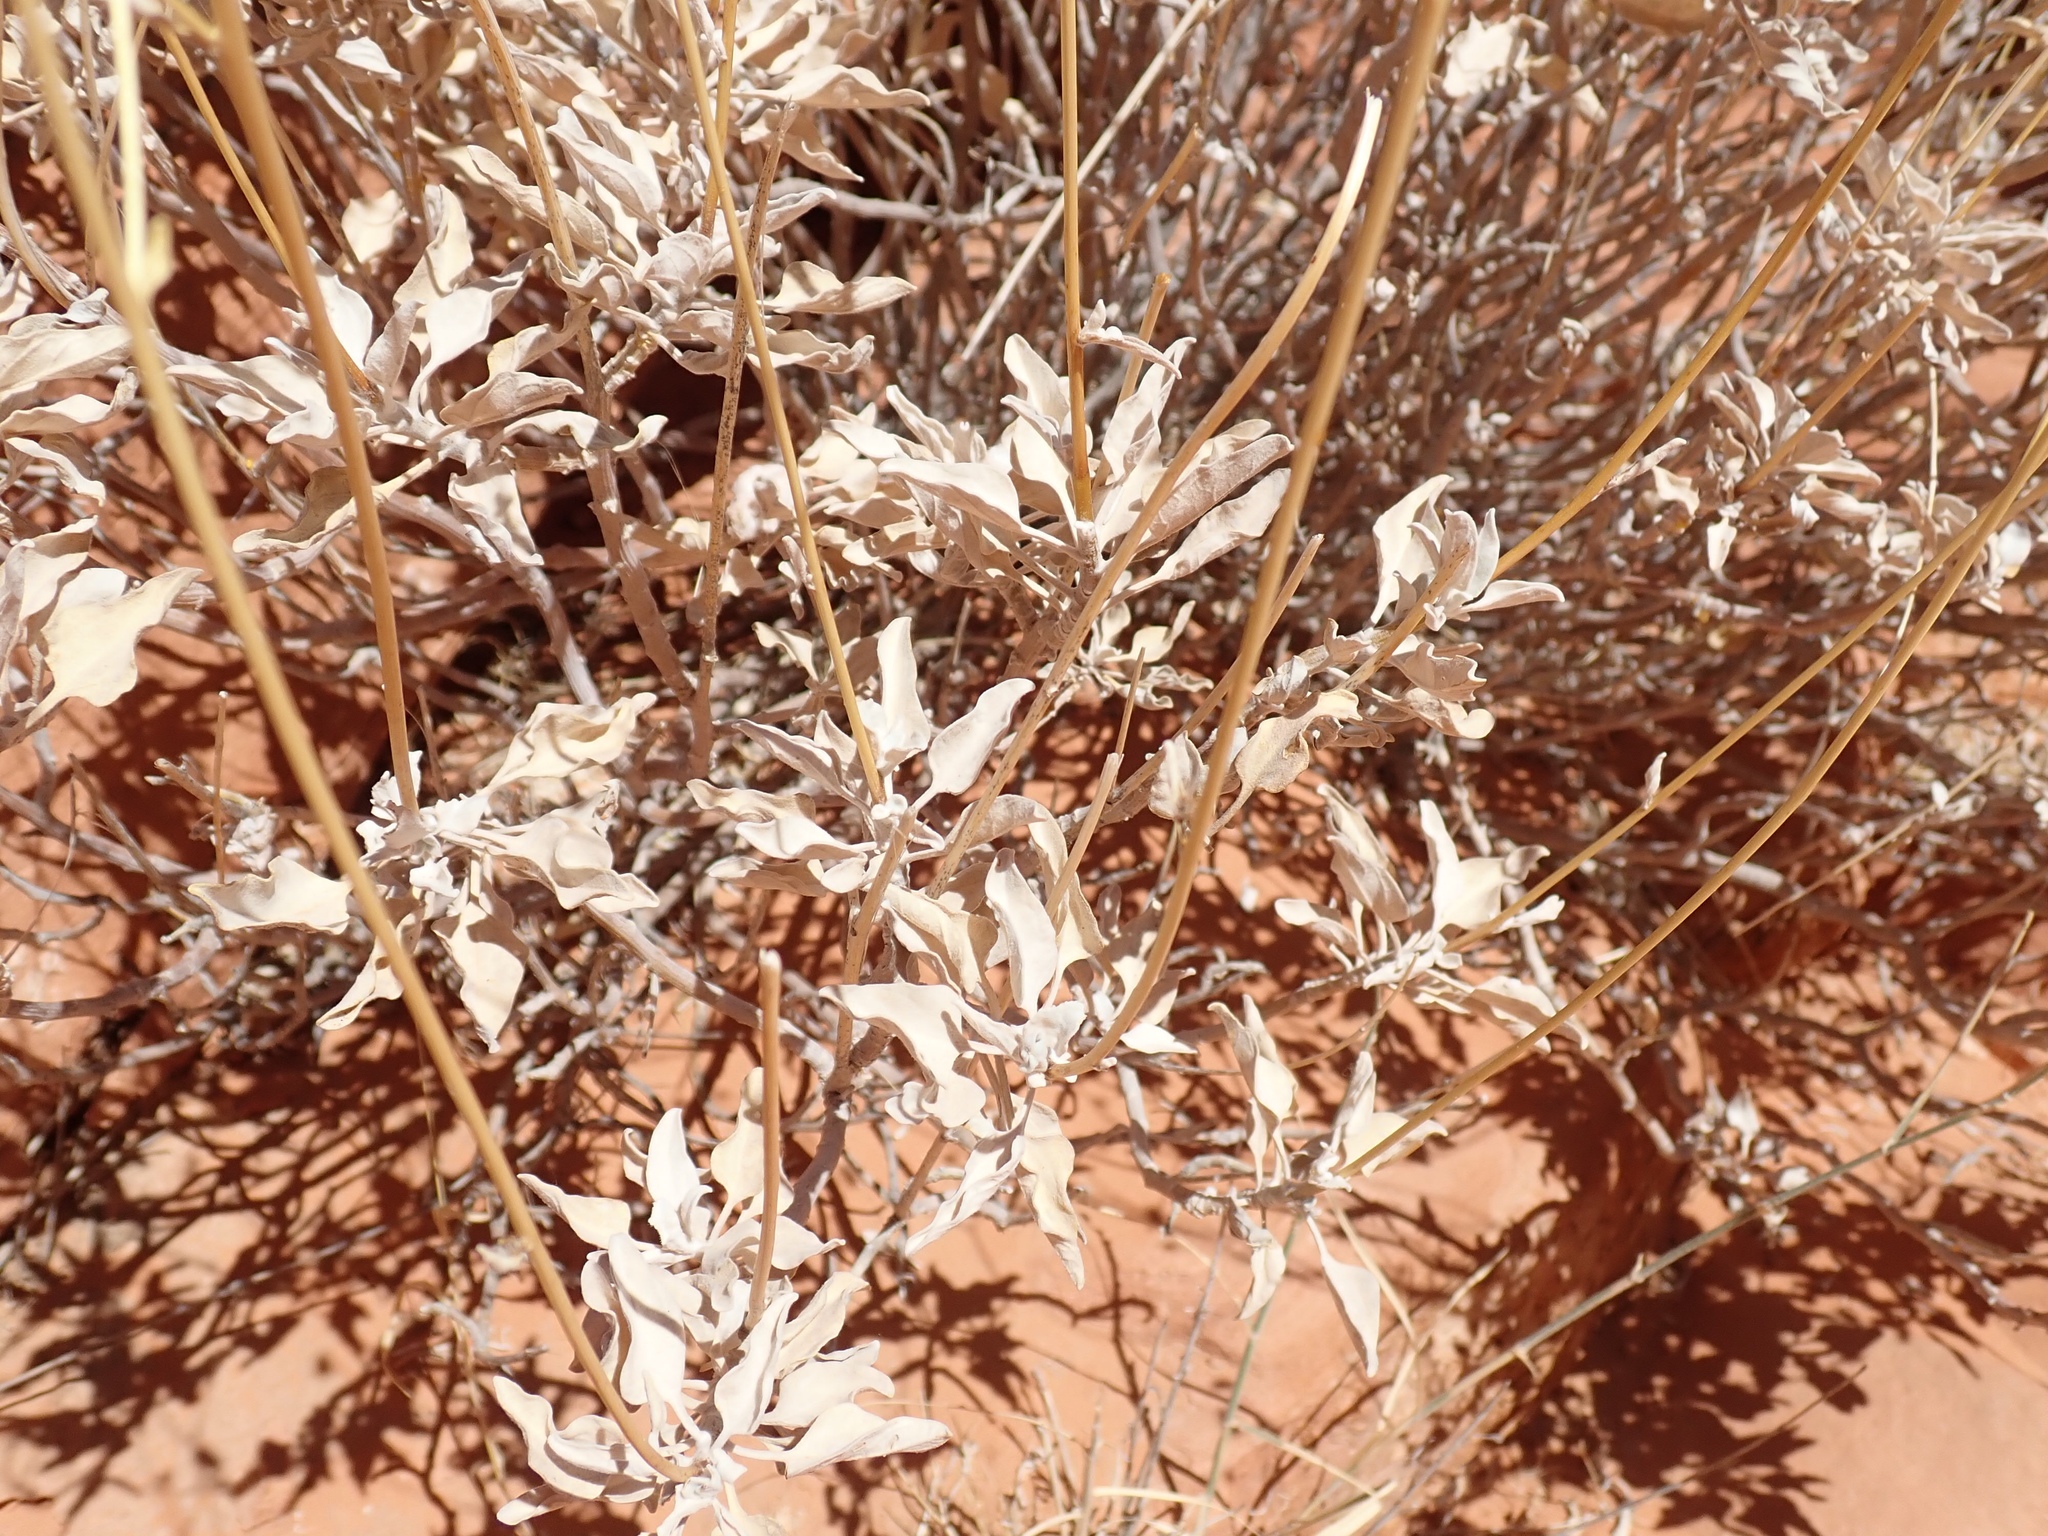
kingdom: Plantae
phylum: Tracheophyta
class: Magnoliopsida
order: Asterales
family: Asteraceae
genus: Encelia
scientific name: Encelia farinosa
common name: Brittlebush
